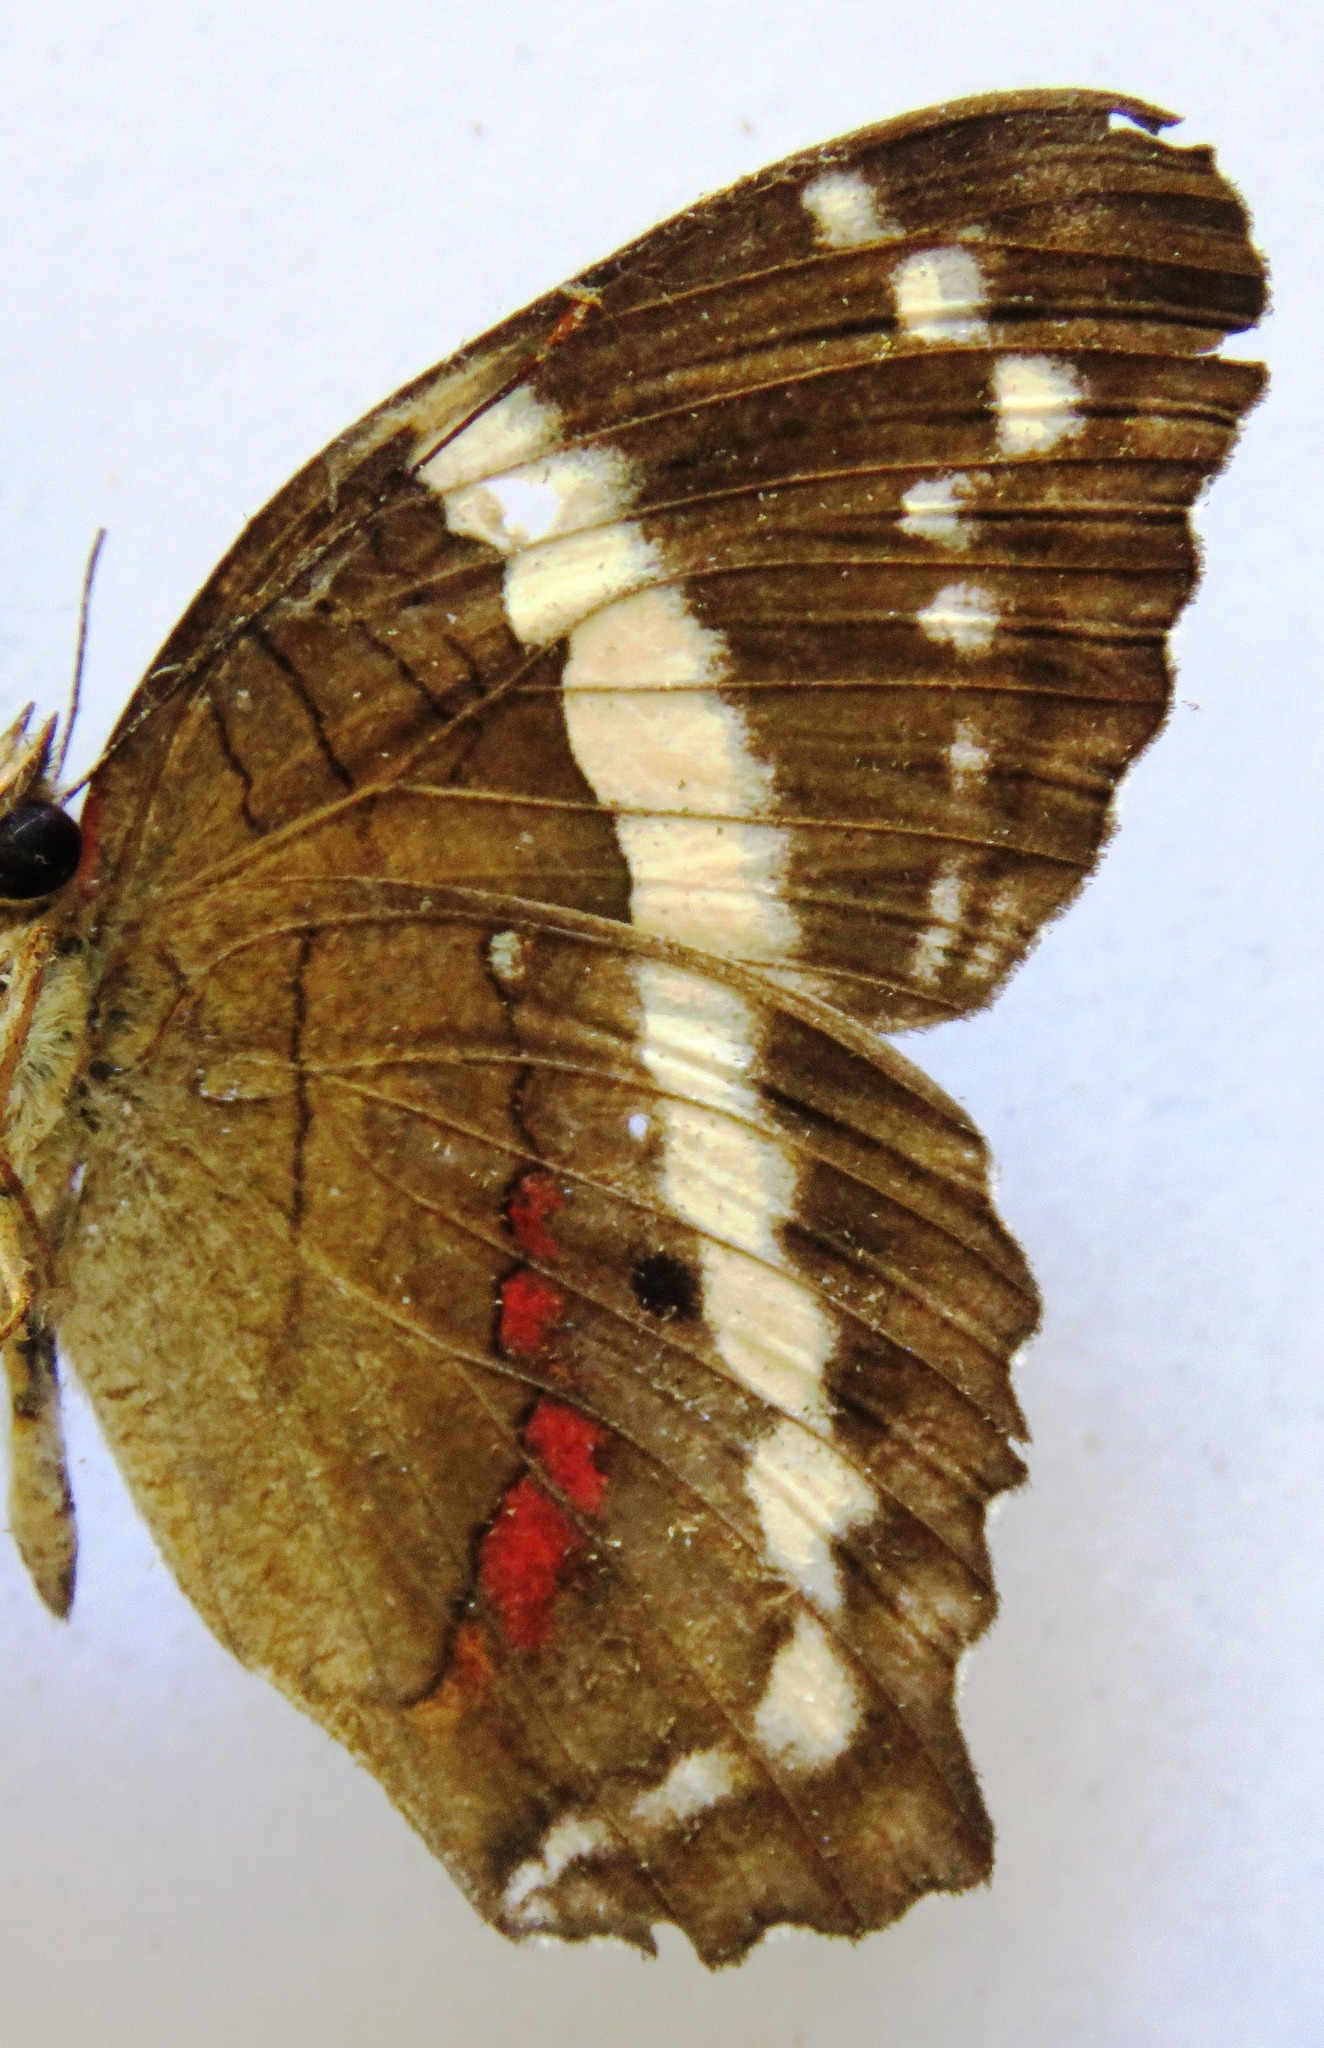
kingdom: Animalia
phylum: Arthropoda
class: Insecta
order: Lepidoptera
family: Nymphalidae
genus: Anartia
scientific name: Anartia fatima
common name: Banded peacock
